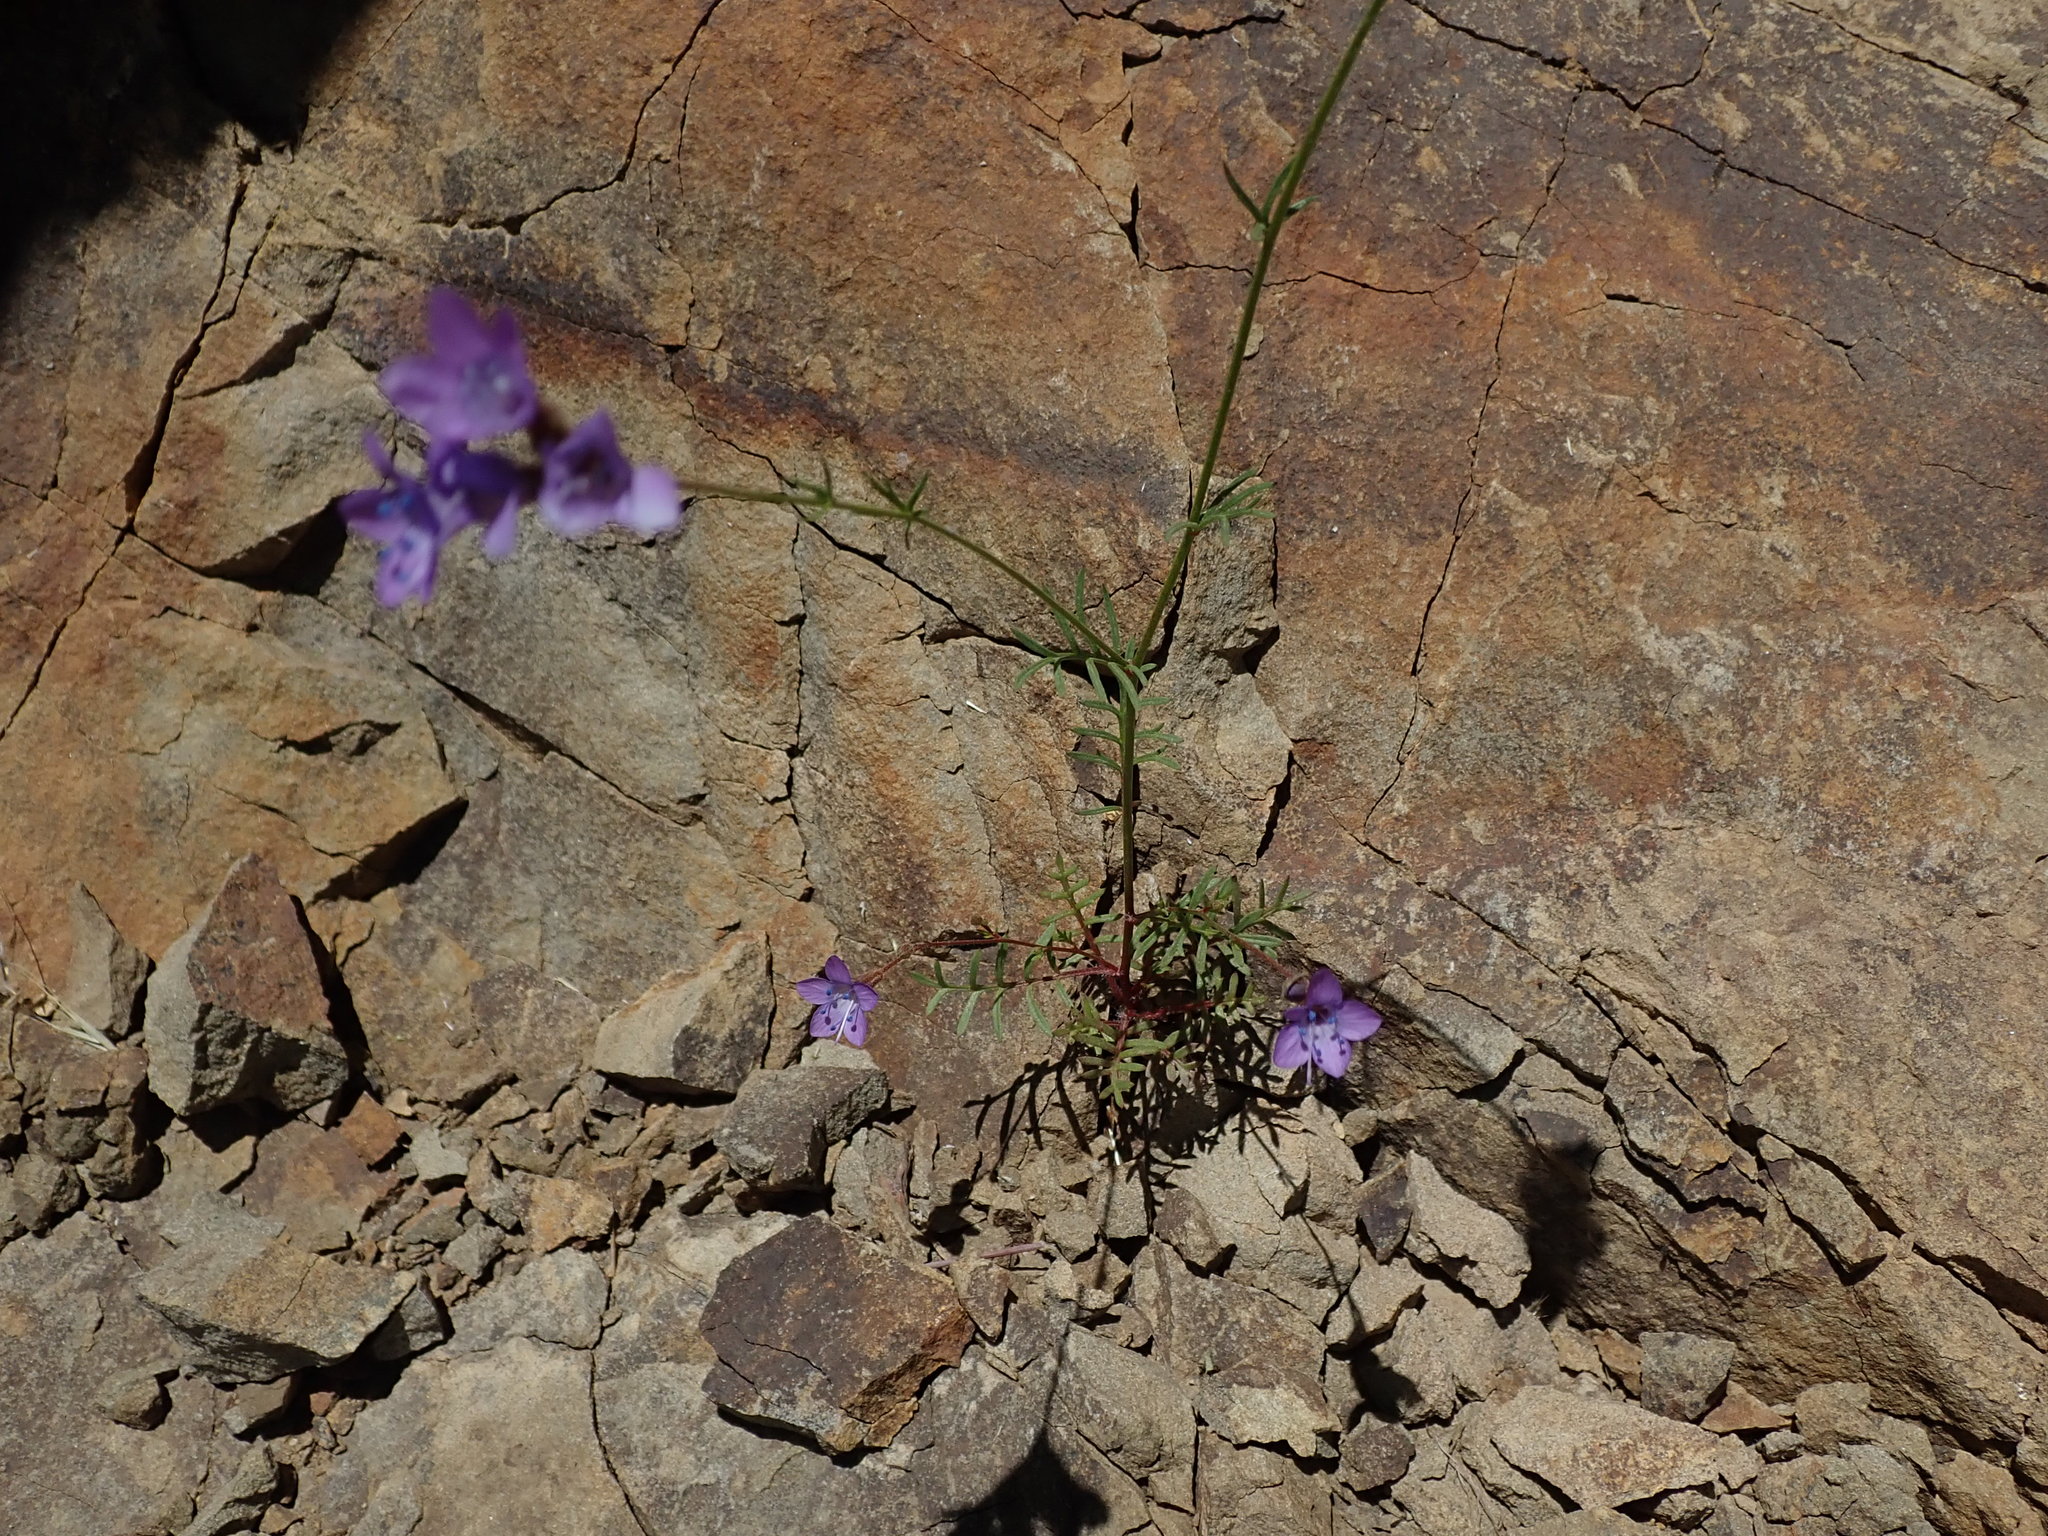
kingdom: Plantae
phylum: Tracheophyta
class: Magnoliopsida
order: Ericales
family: Polemoniaceae
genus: Gilia
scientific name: Gilia achilleifolia
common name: California gily-flower
